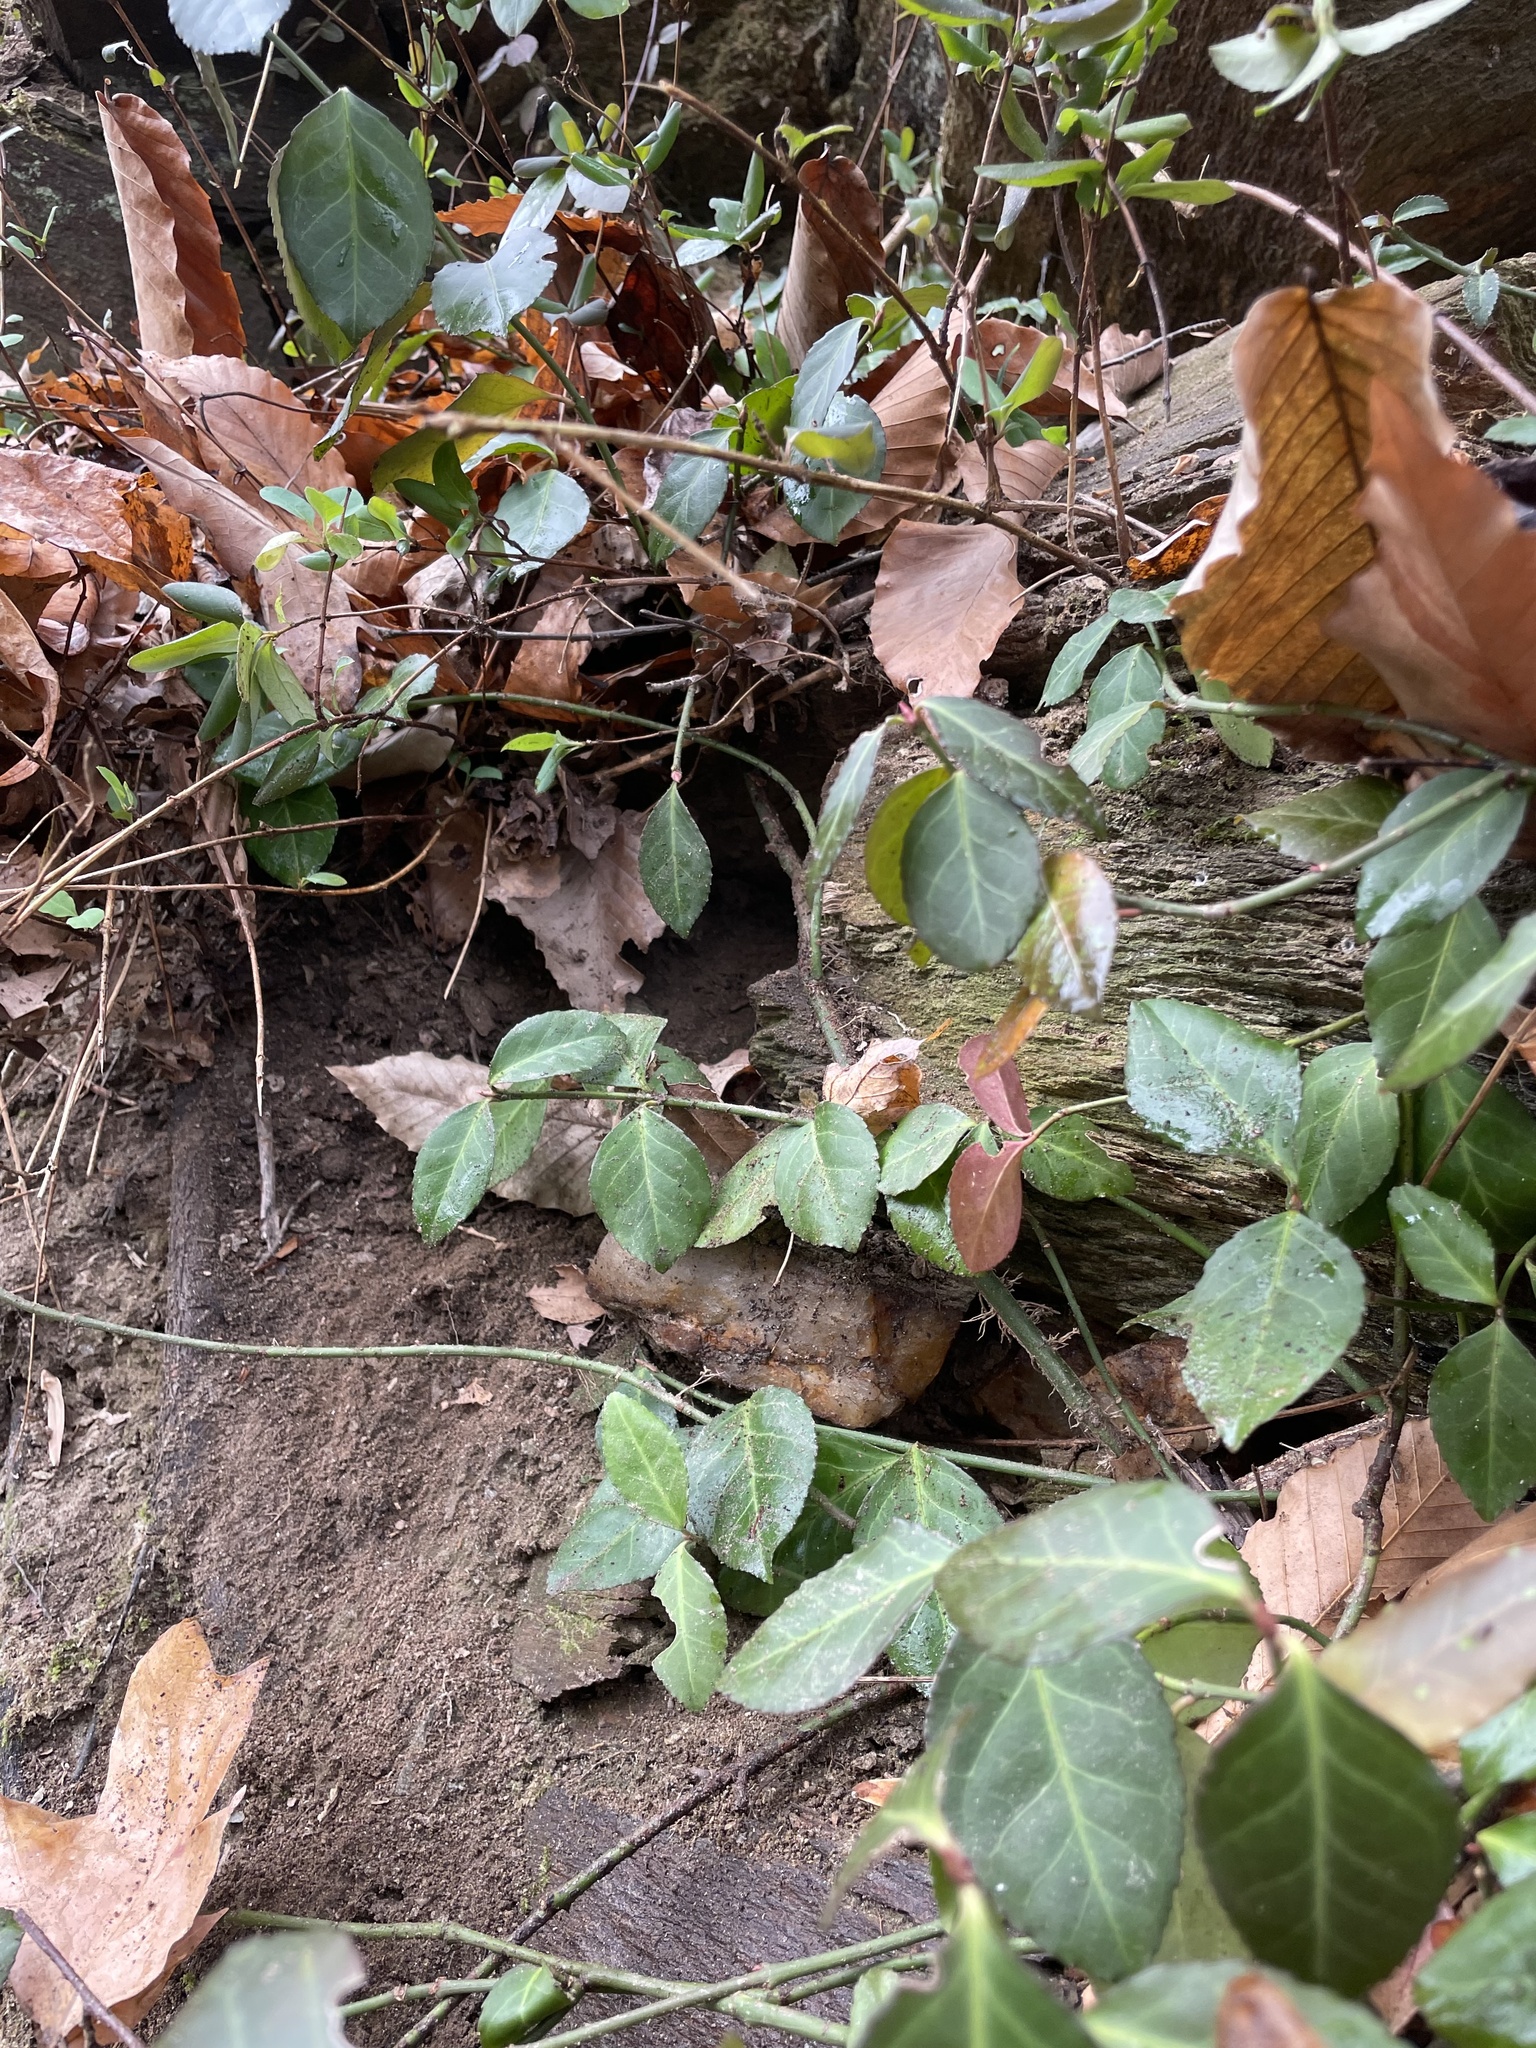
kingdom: Plantae
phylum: Tracheophyta
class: Magnoliopsida
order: Celastrales
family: Celastraceae
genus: Euonymus
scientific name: Euonymus fortunei
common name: Climbing euonymus
